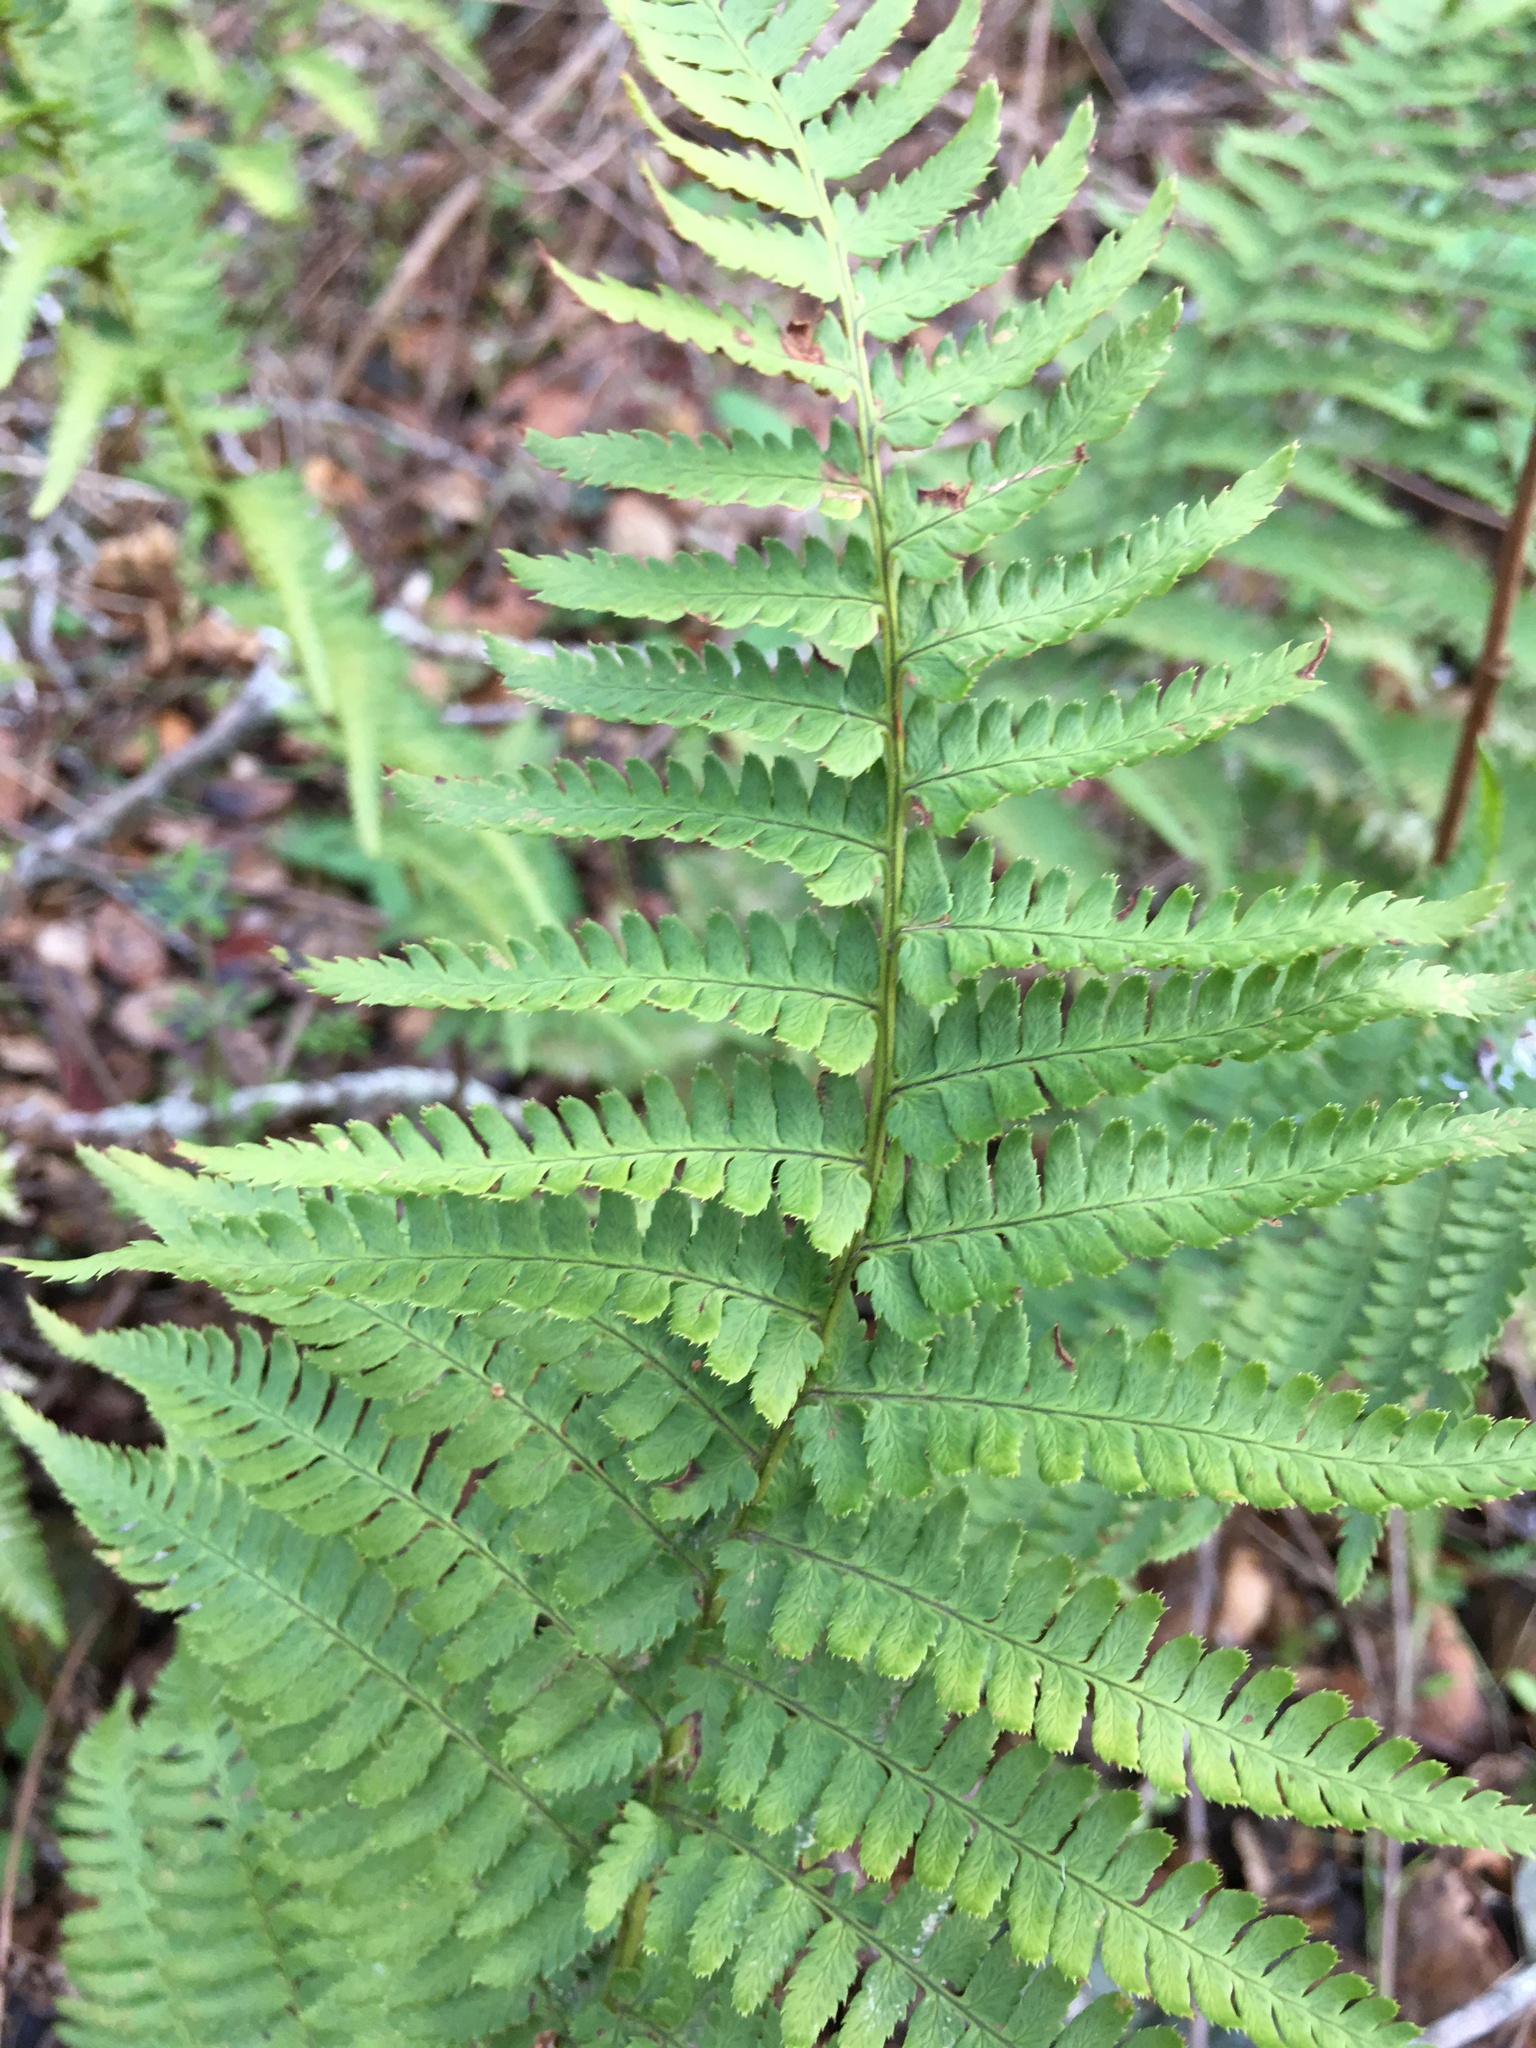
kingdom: Plantae
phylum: Tracheophyta
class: Polypodiopsida
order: Polypodiales
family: Dryopteridaceae
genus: Dryopteris
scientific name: Dryopteris arguta
